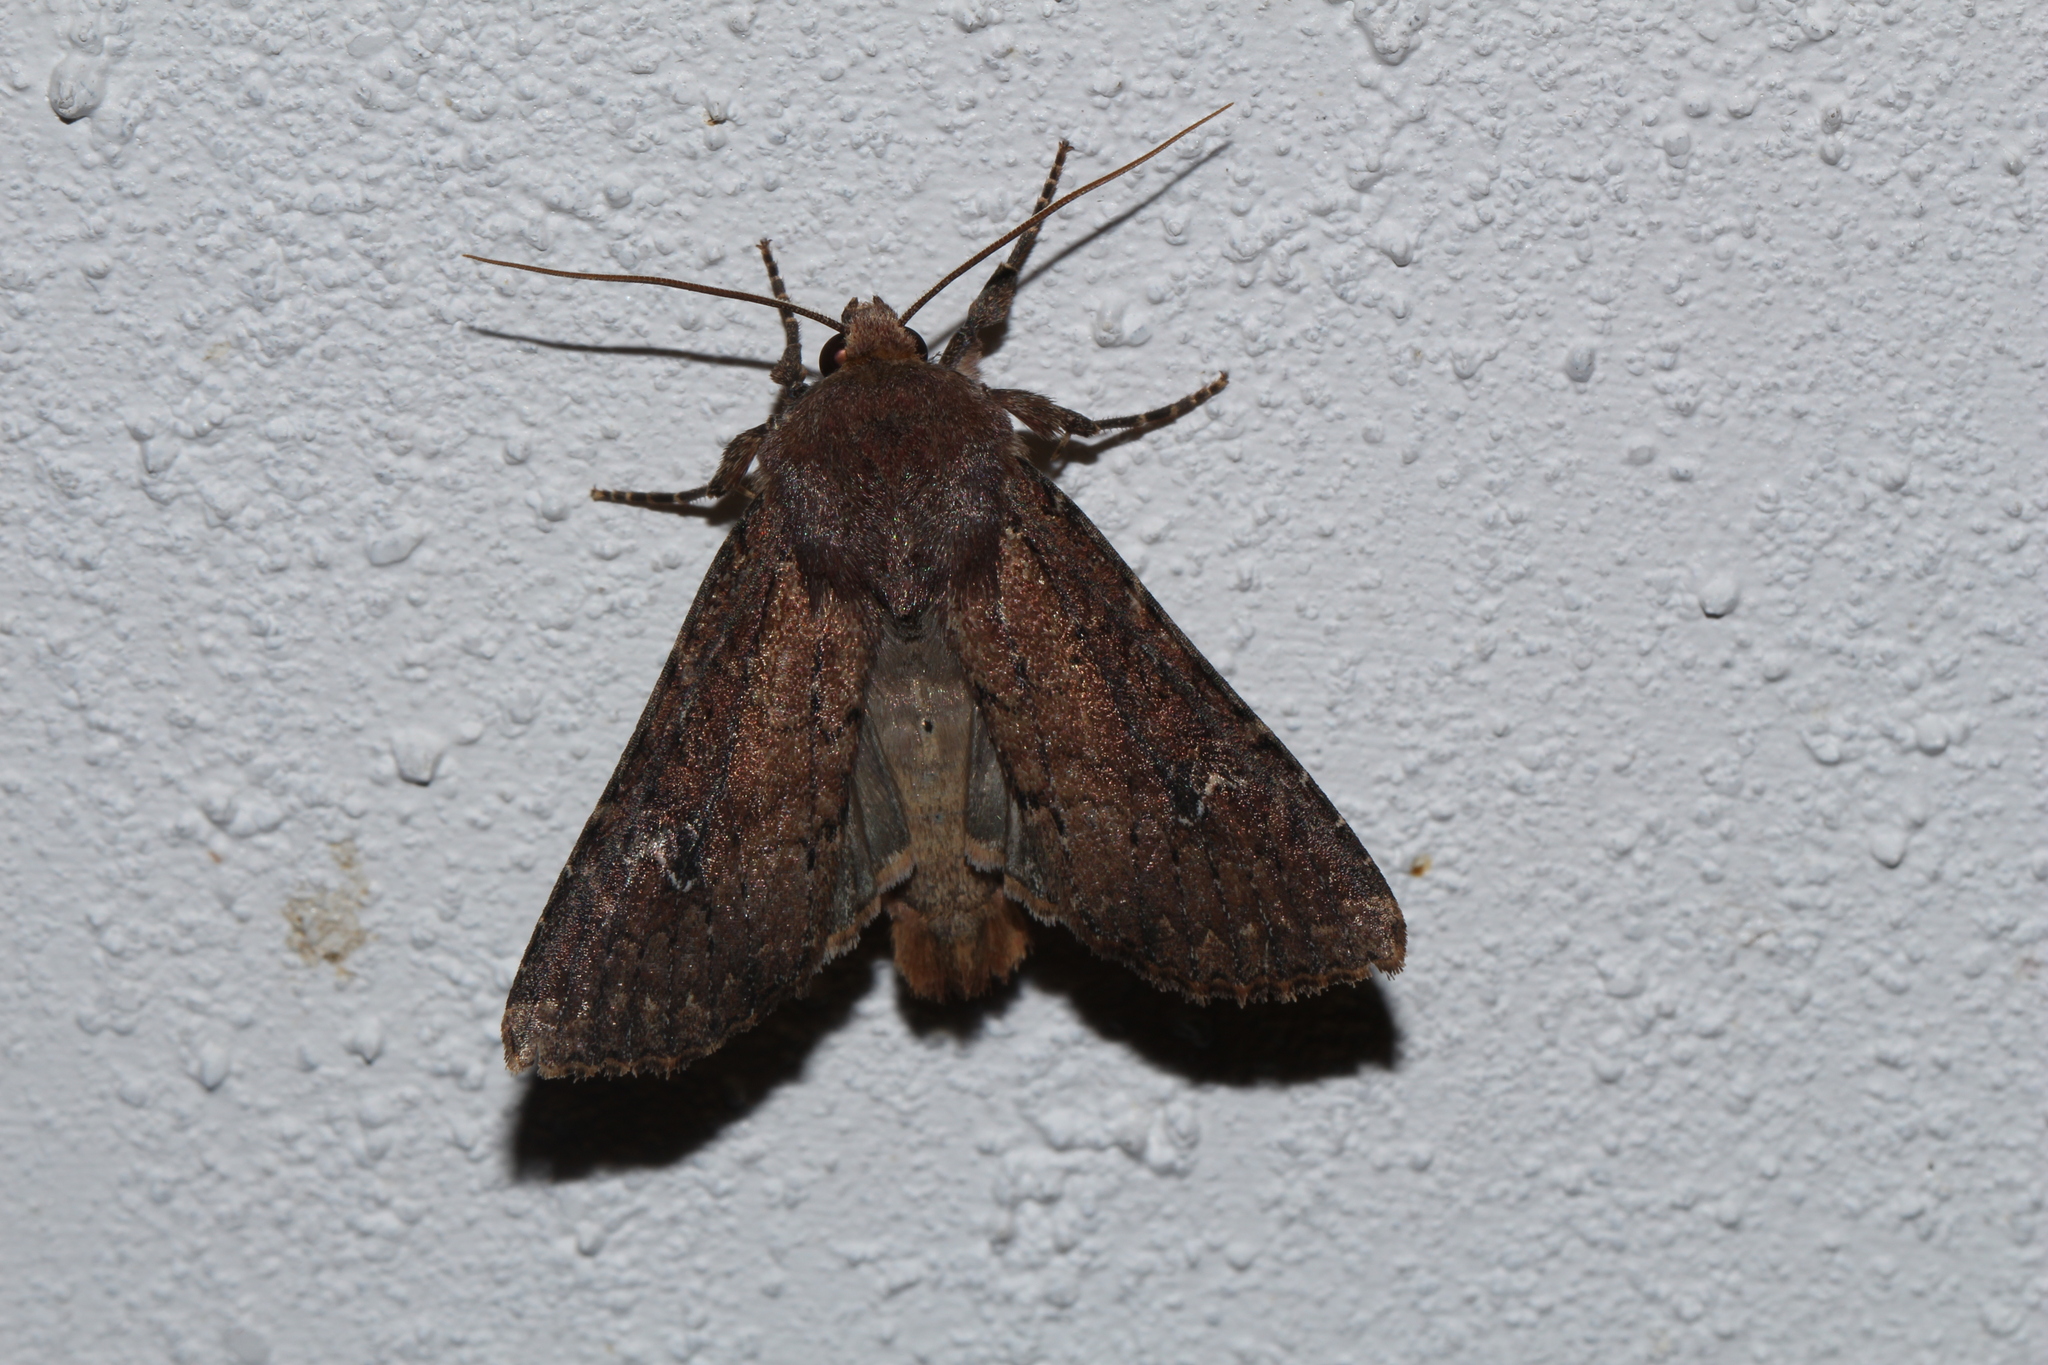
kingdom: Animalia
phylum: Arthropoda
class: Insecta
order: Lepidoptera
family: Noctuidae
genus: Apamea
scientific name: Apamea lateritia
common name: Scarce brindle
